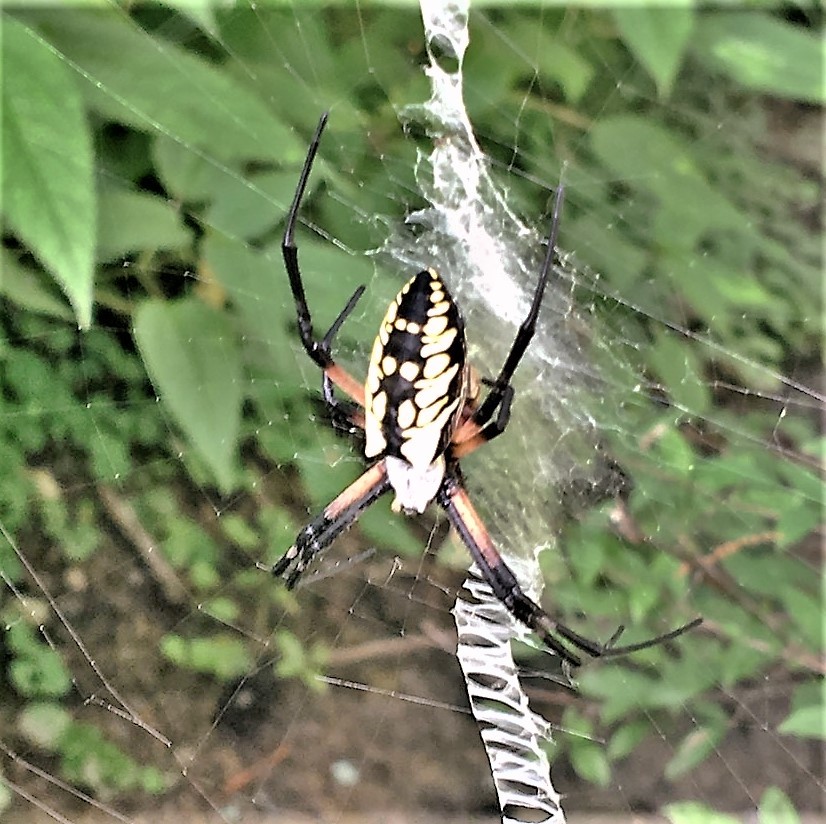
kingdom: Animalia
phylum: Arthropoda
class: Arachnida
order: Araneae
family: Araneidae
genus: Argiope
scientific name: Argiope aurantia
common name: Orb weavers
